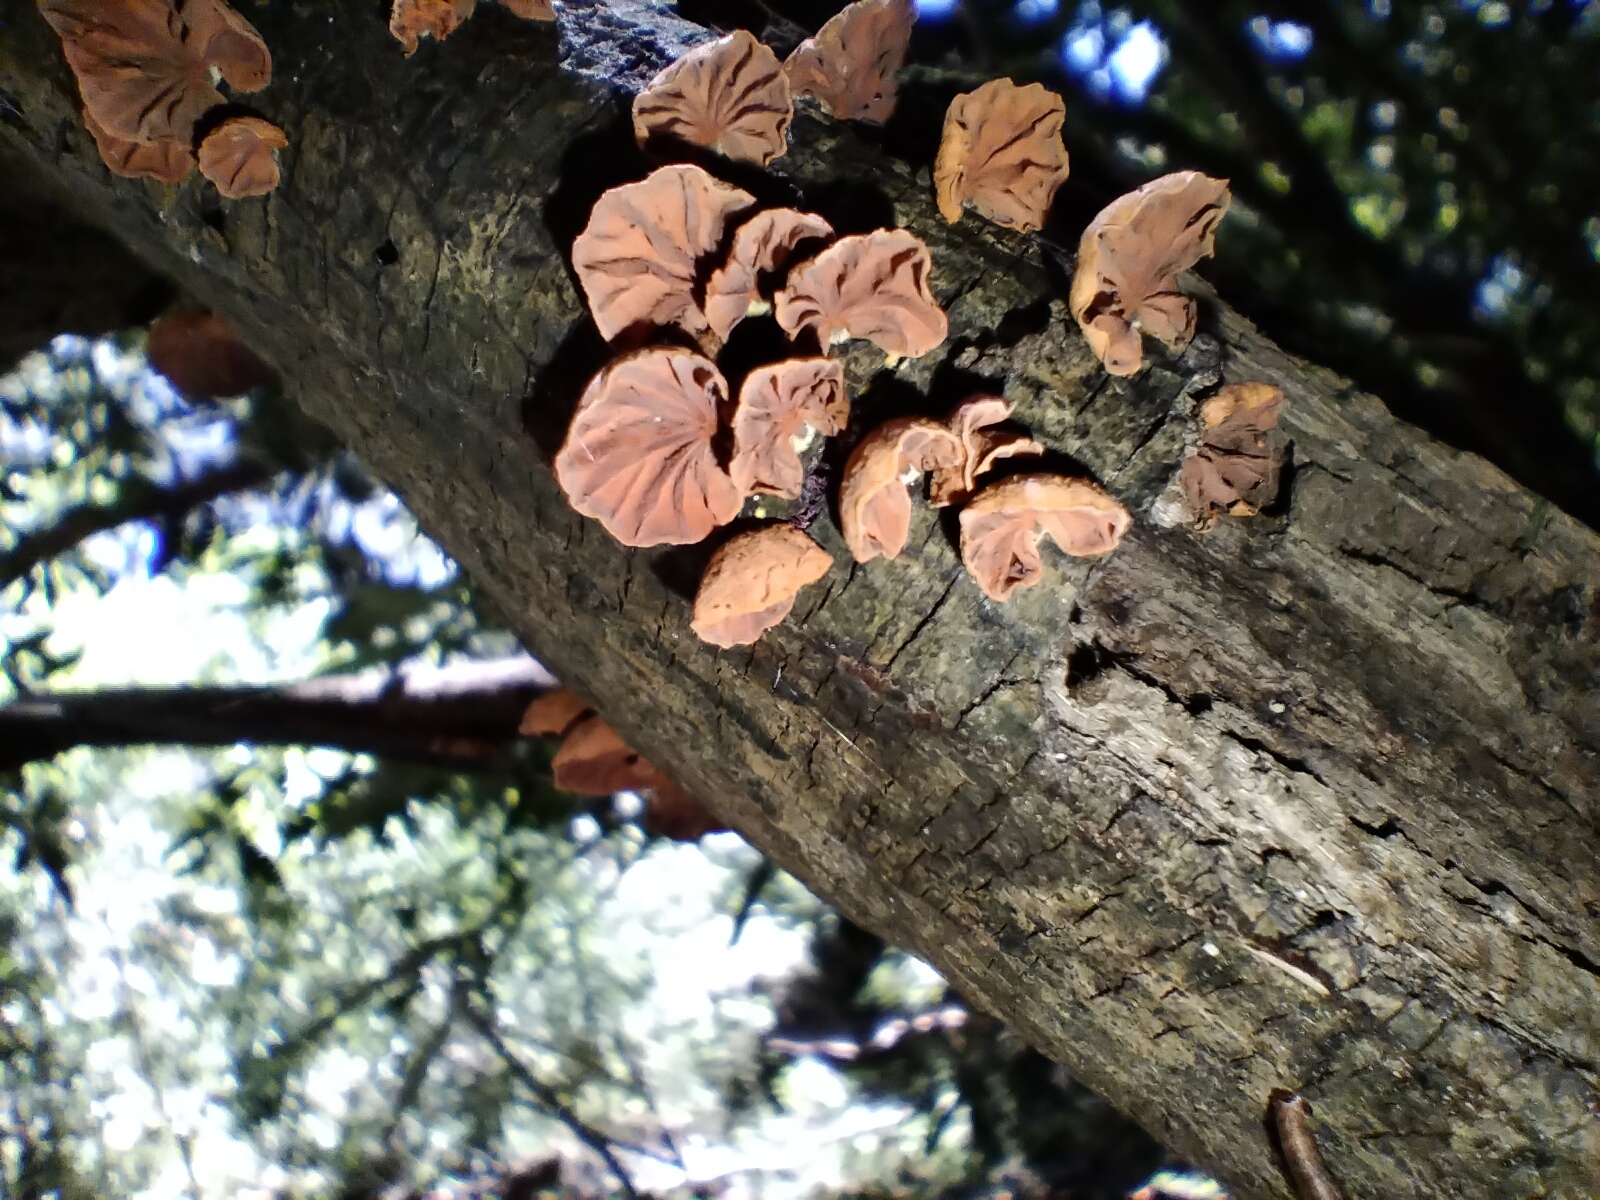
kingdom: Fungi
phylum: Basidiomycota
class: Agaricomycetes
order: Agaricales
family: Omphalotaceae
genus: Anthracophyllum
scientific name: Anthracophyllum archeri
